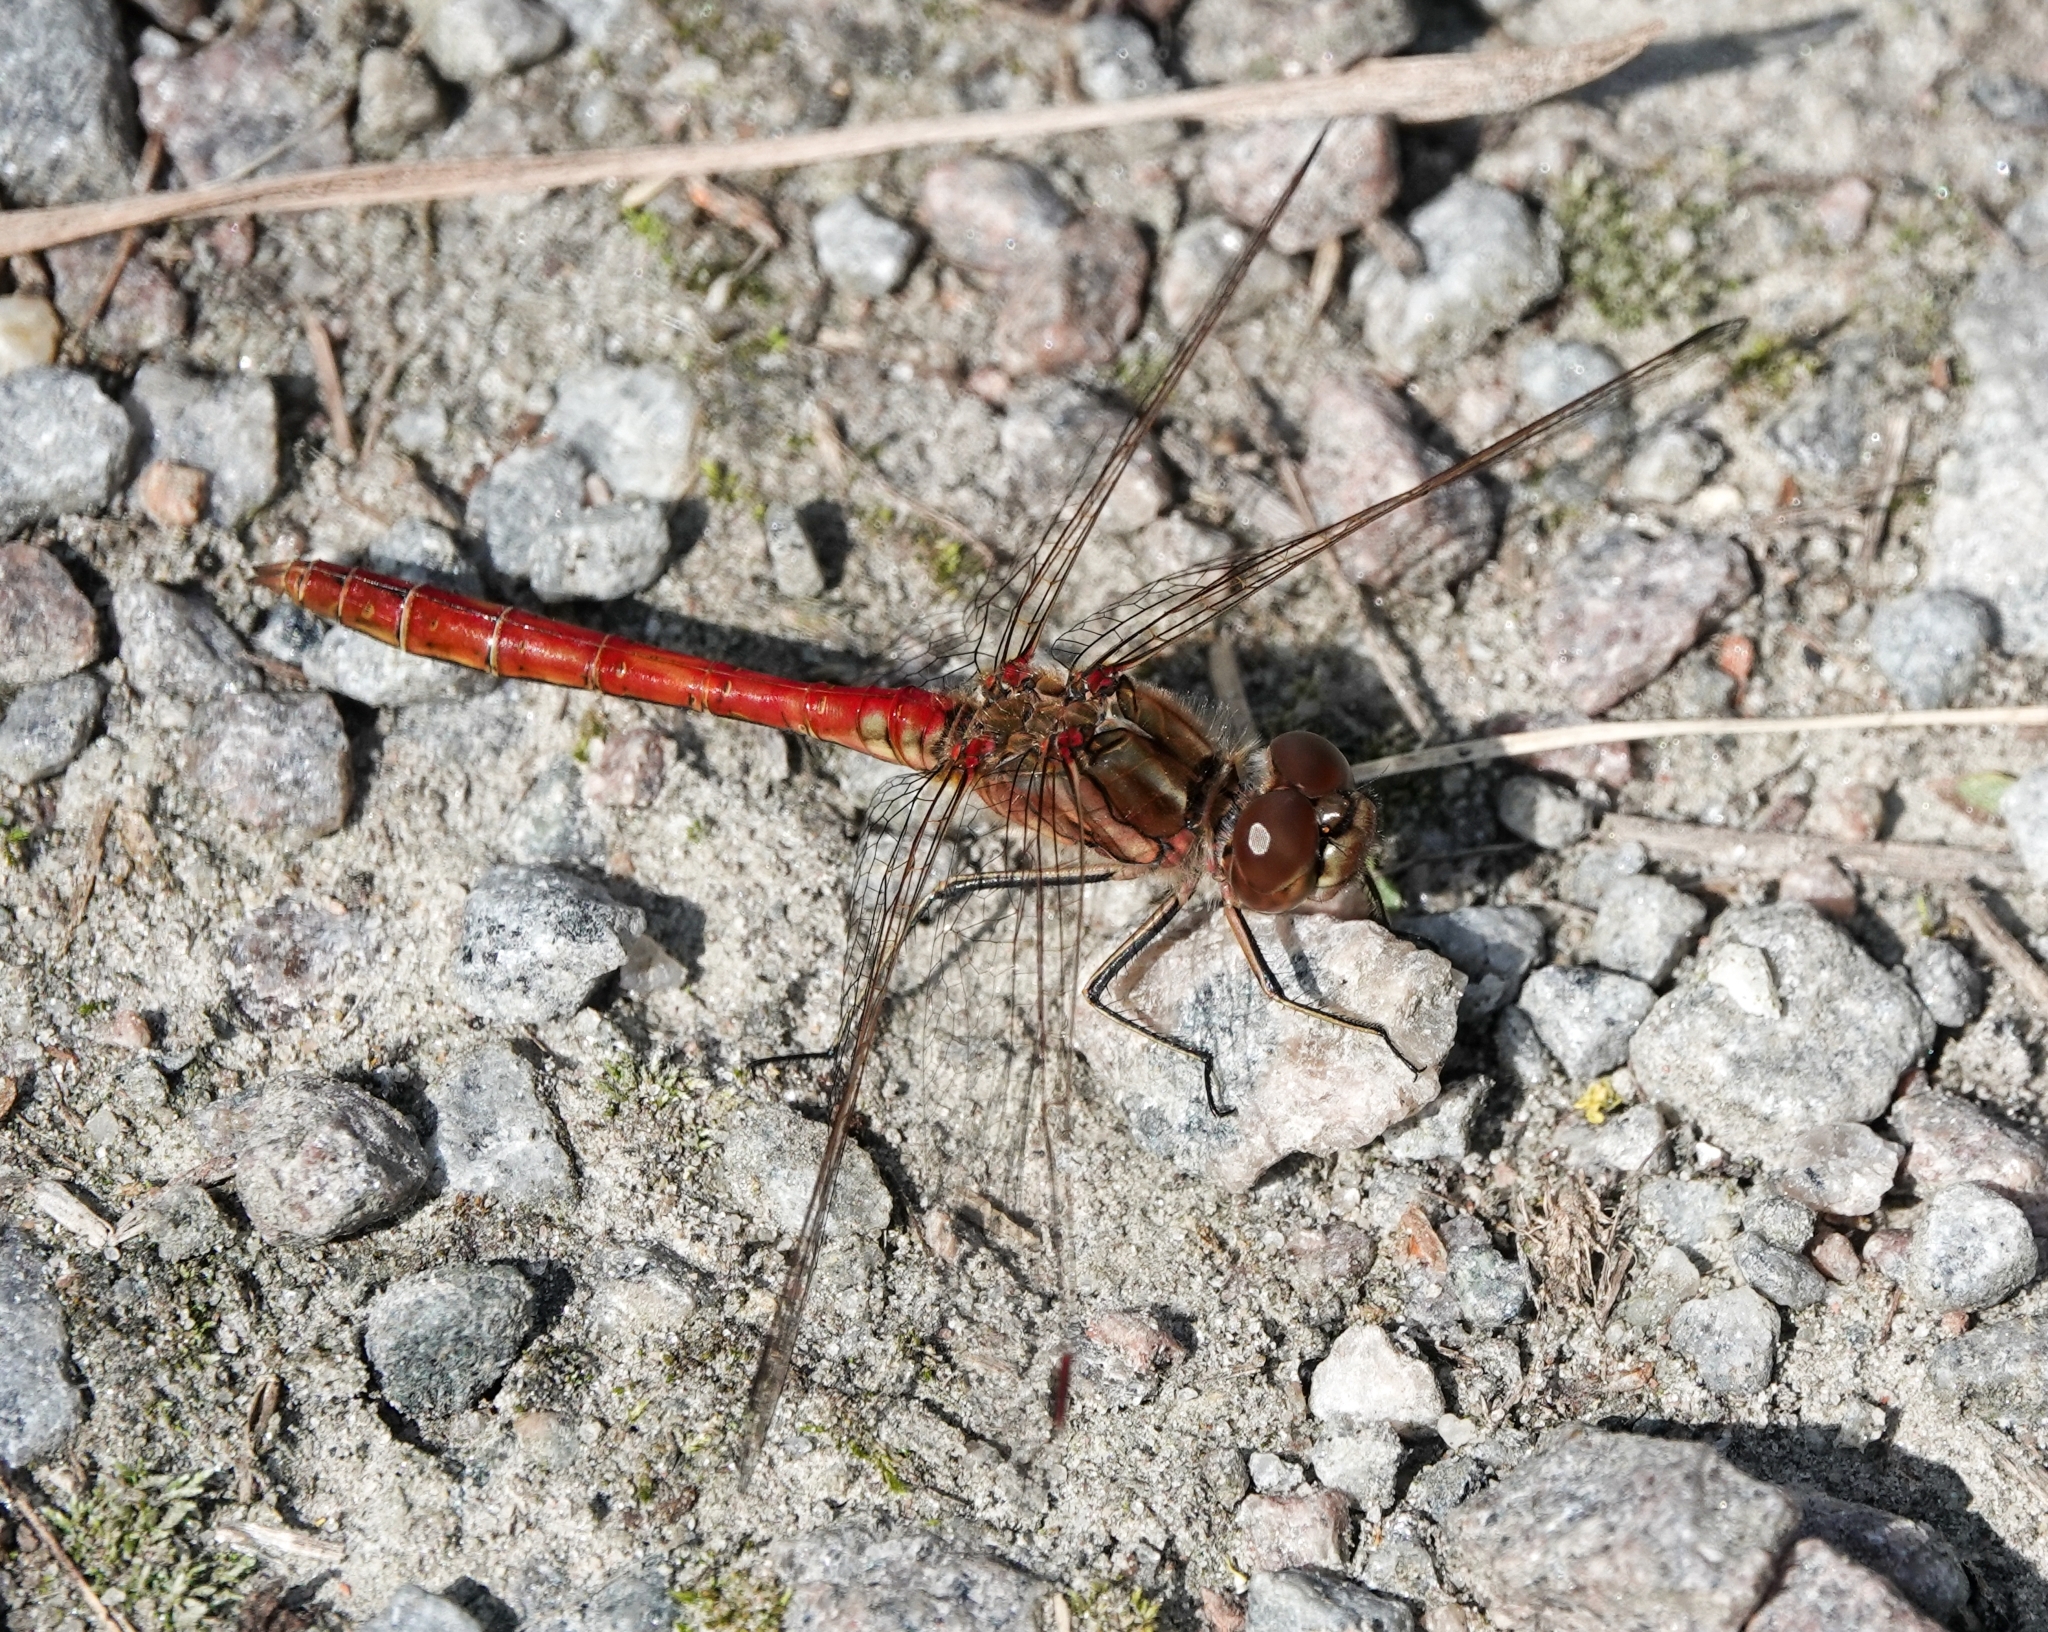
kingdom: Animalia
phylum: Arthropoda
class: Insecta
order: Odonata
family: Libellulidae
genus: Sympetrum
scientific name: Sympetrum vulgatum
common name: Vagrant darter
